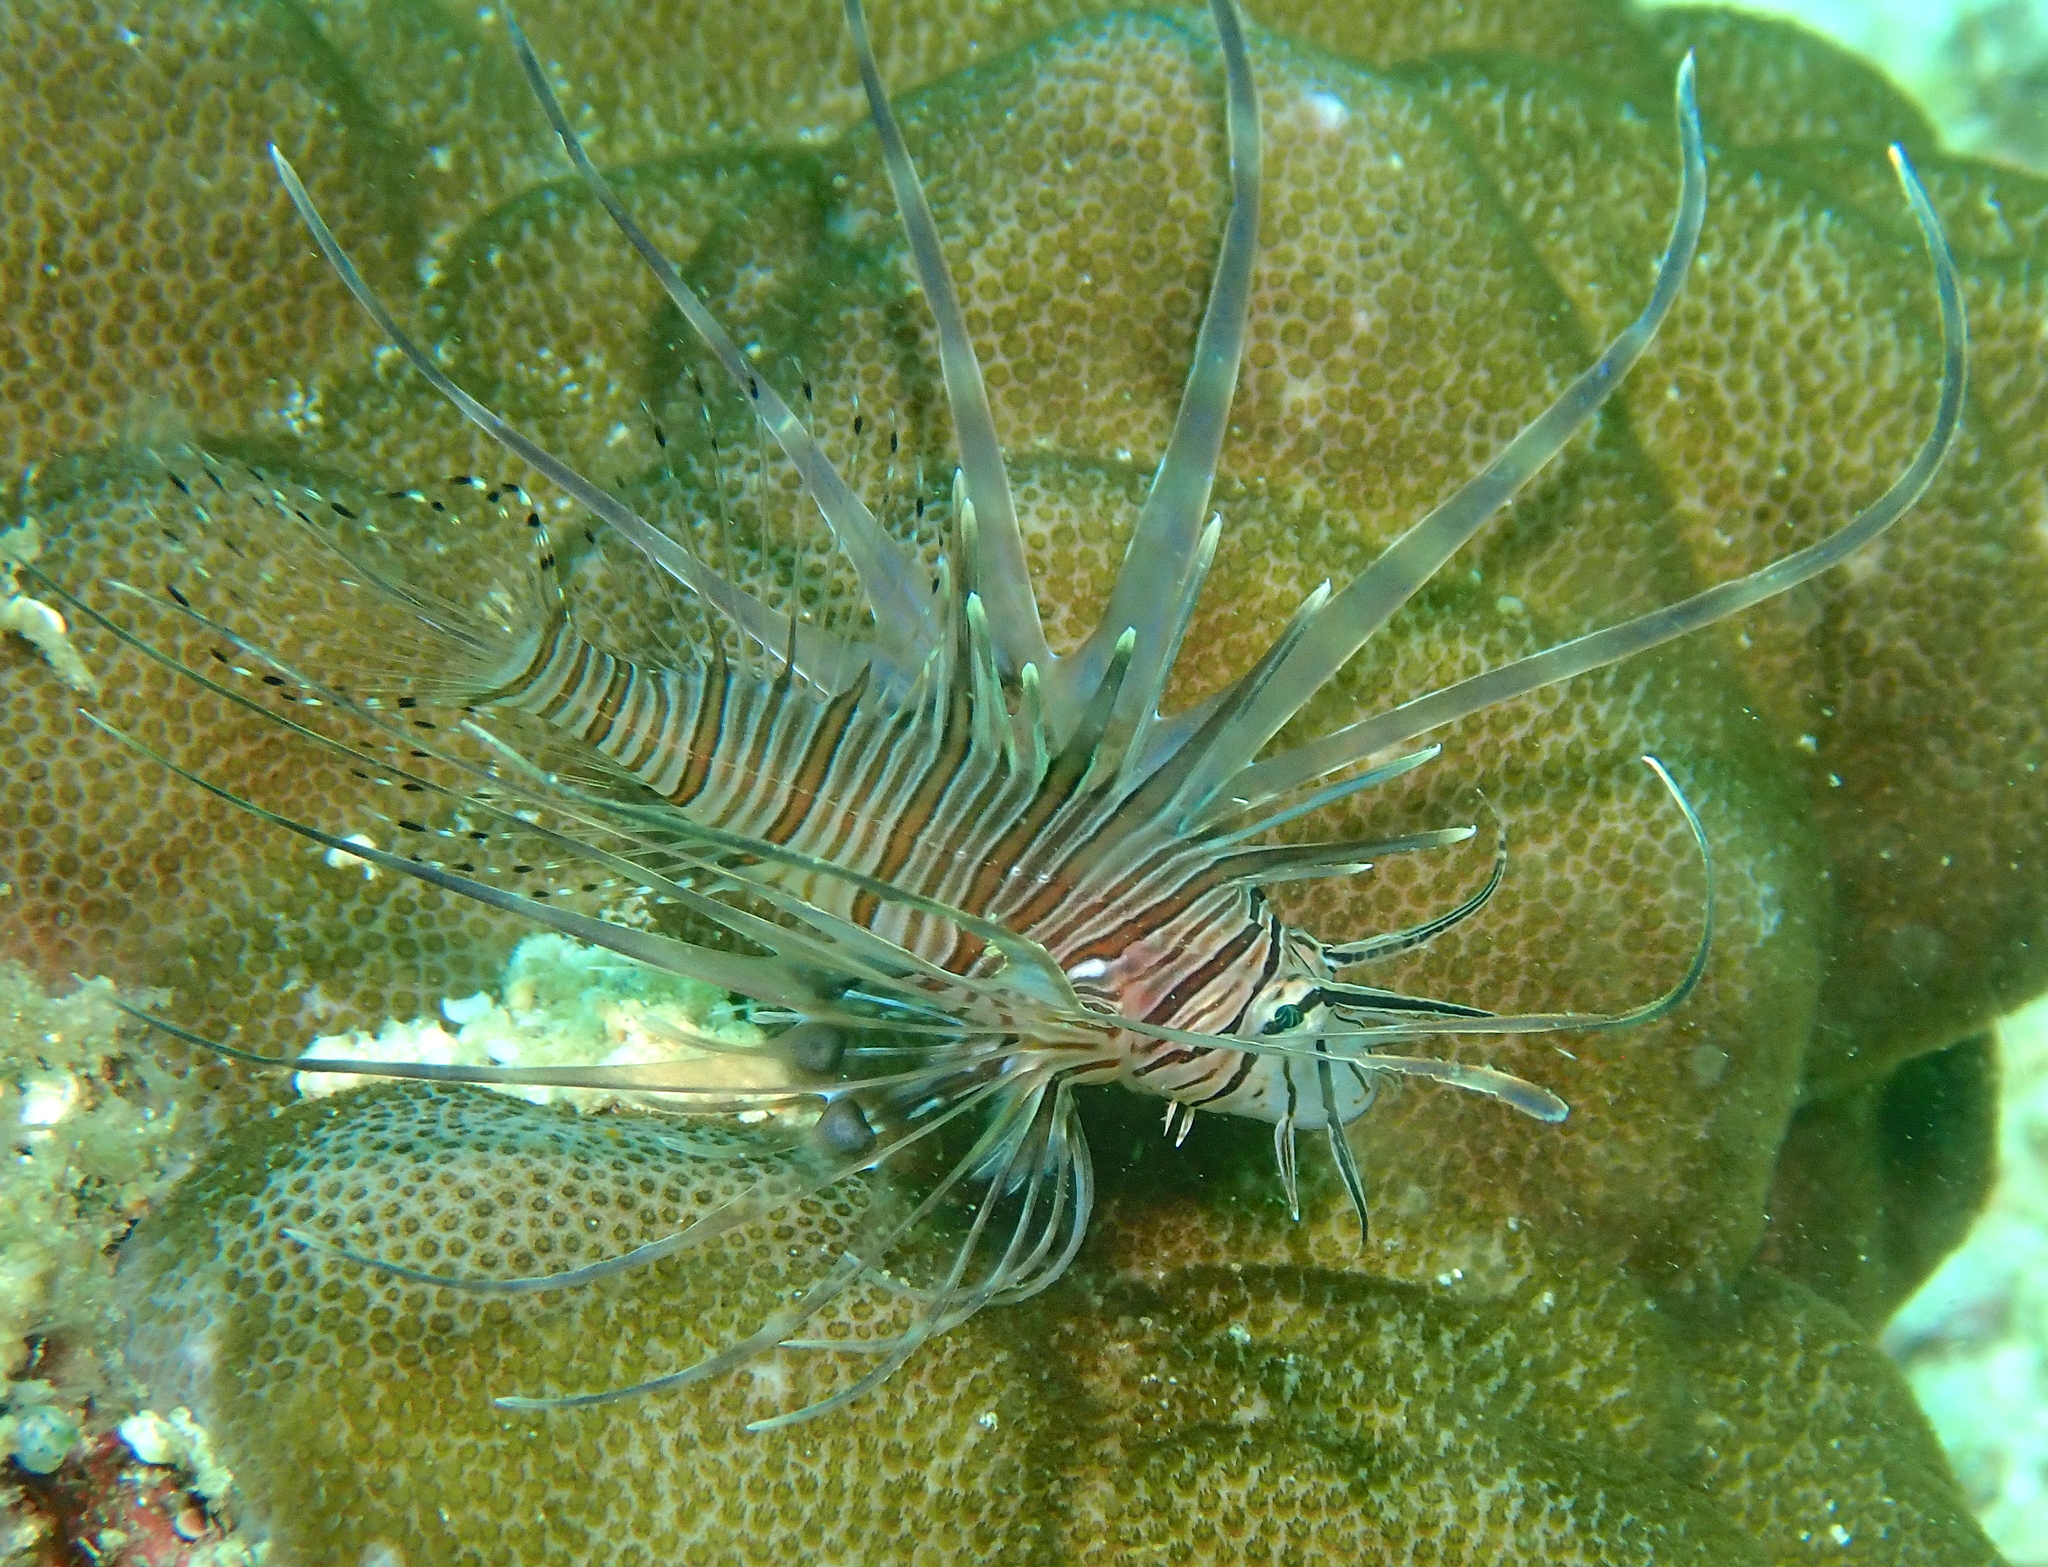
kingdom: Animalia
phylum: Chordata
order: Scorpaeniformes
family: Scorpaenidae
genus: Pterois
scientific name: Pterois volitans
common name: Lionfish
